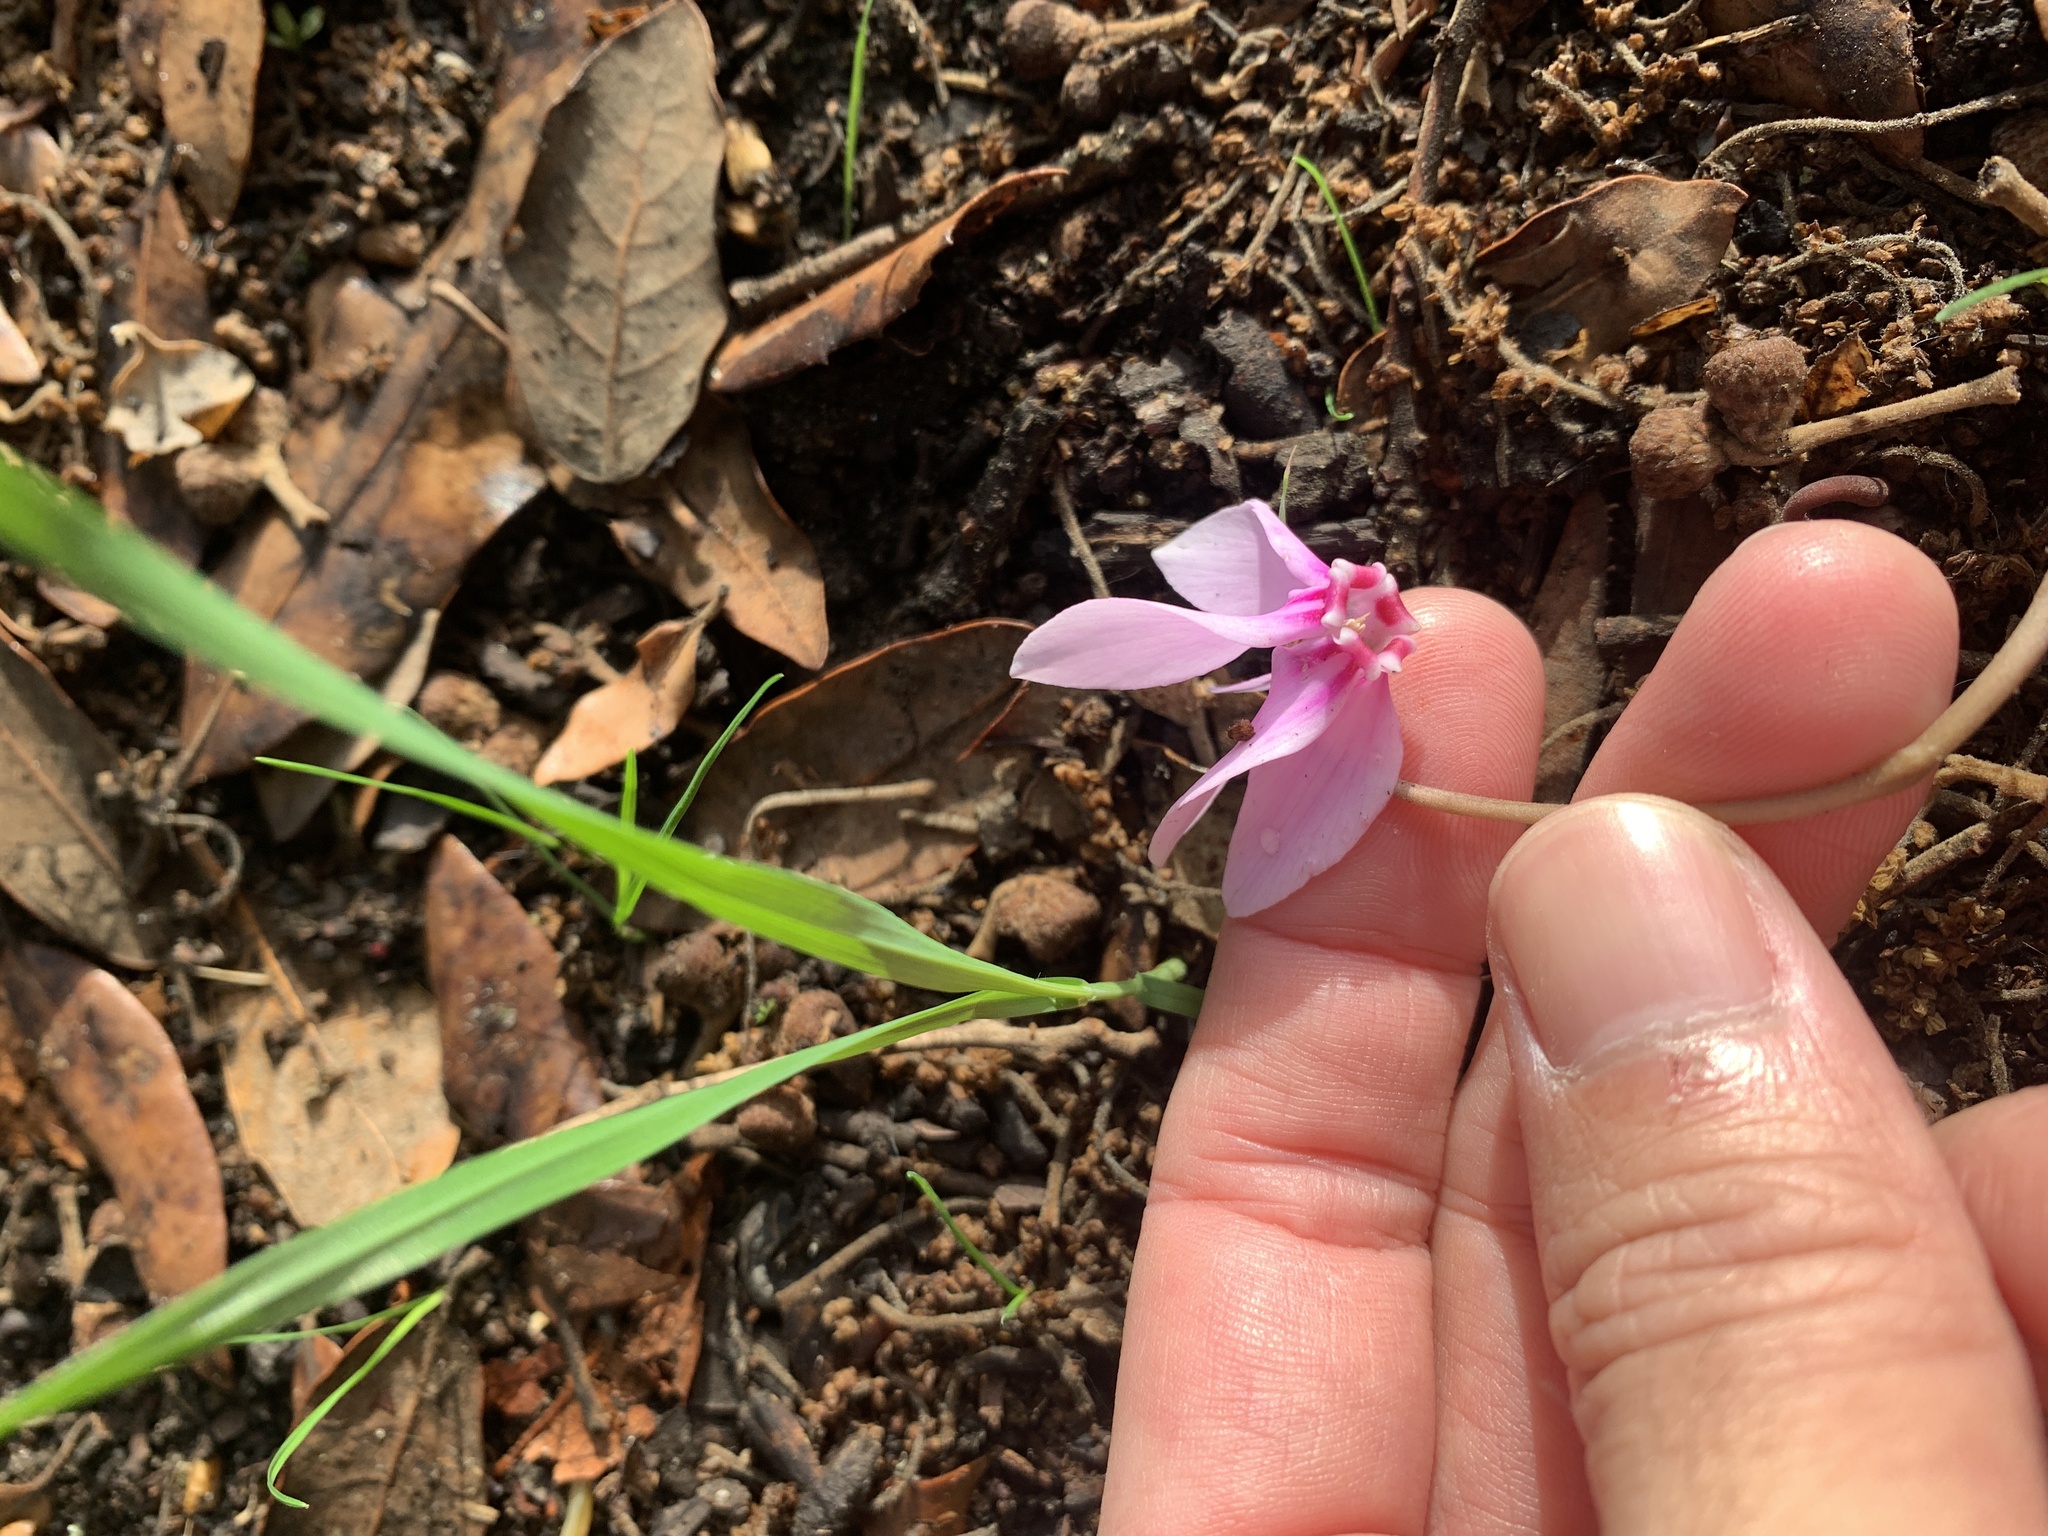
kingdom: Plantae
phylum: Tracheophyta
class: Magnoliopsida
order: Ericales
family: Primulaceae
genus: Cyclamen
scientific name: Cyclamen hederifolium
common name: Sowbread
